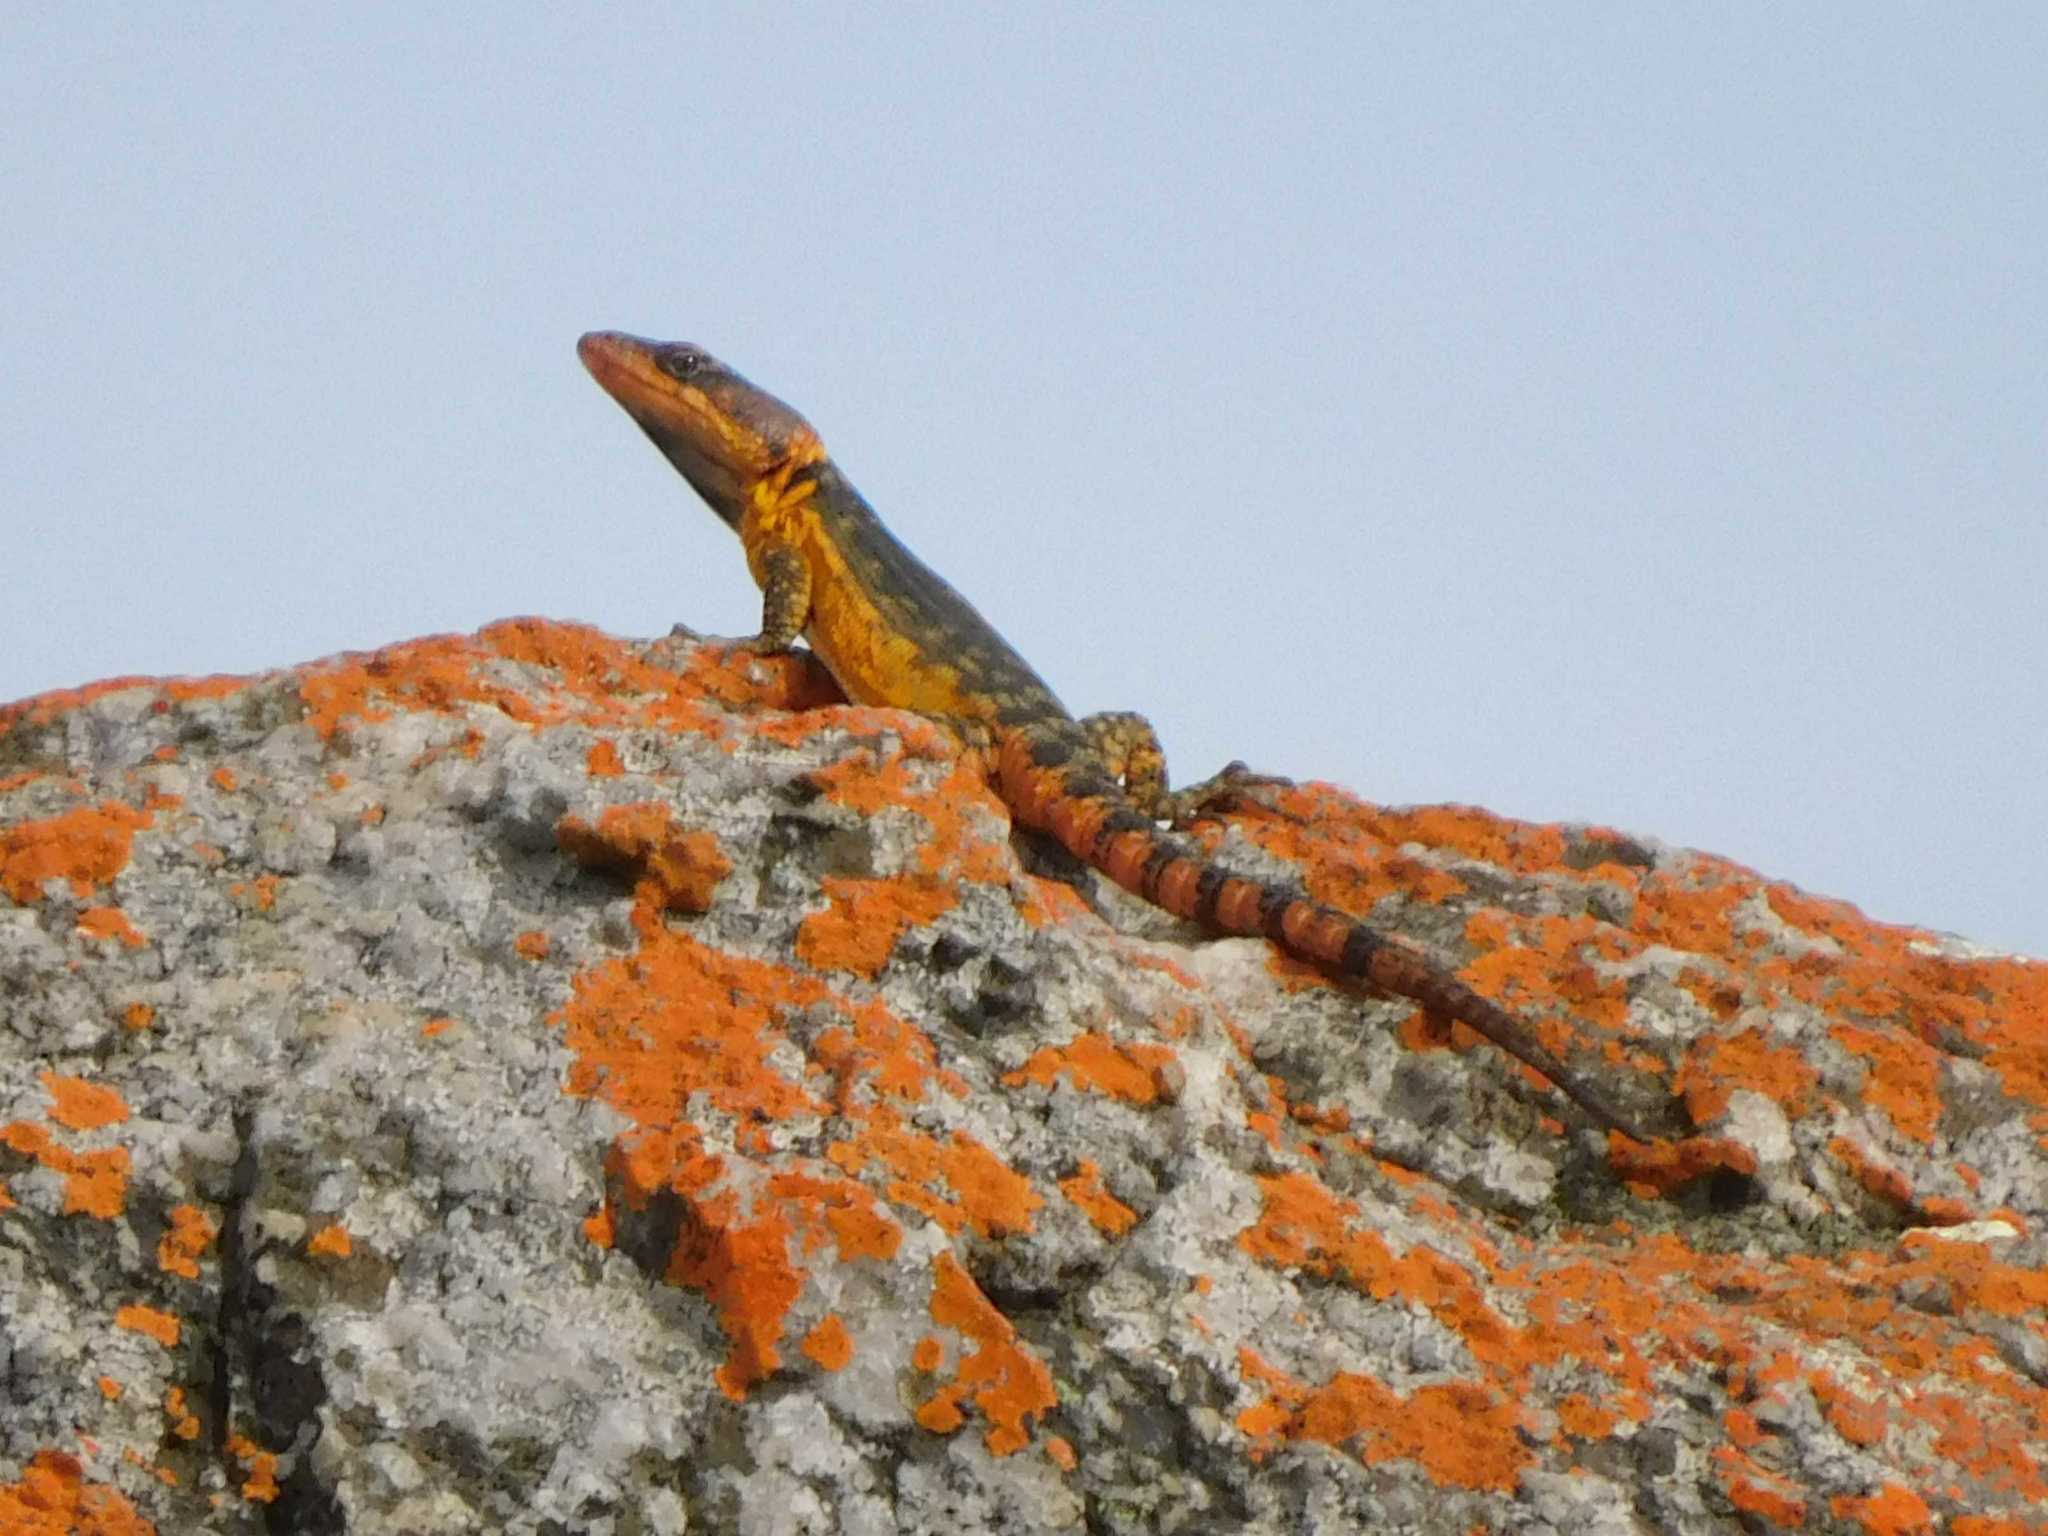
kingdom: Animalia
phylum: Chordata
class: Squamata
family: Cordylidae
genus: Pseudocordylus
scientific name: Pseudocordylus melanotus
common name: Highveld crag lizard
